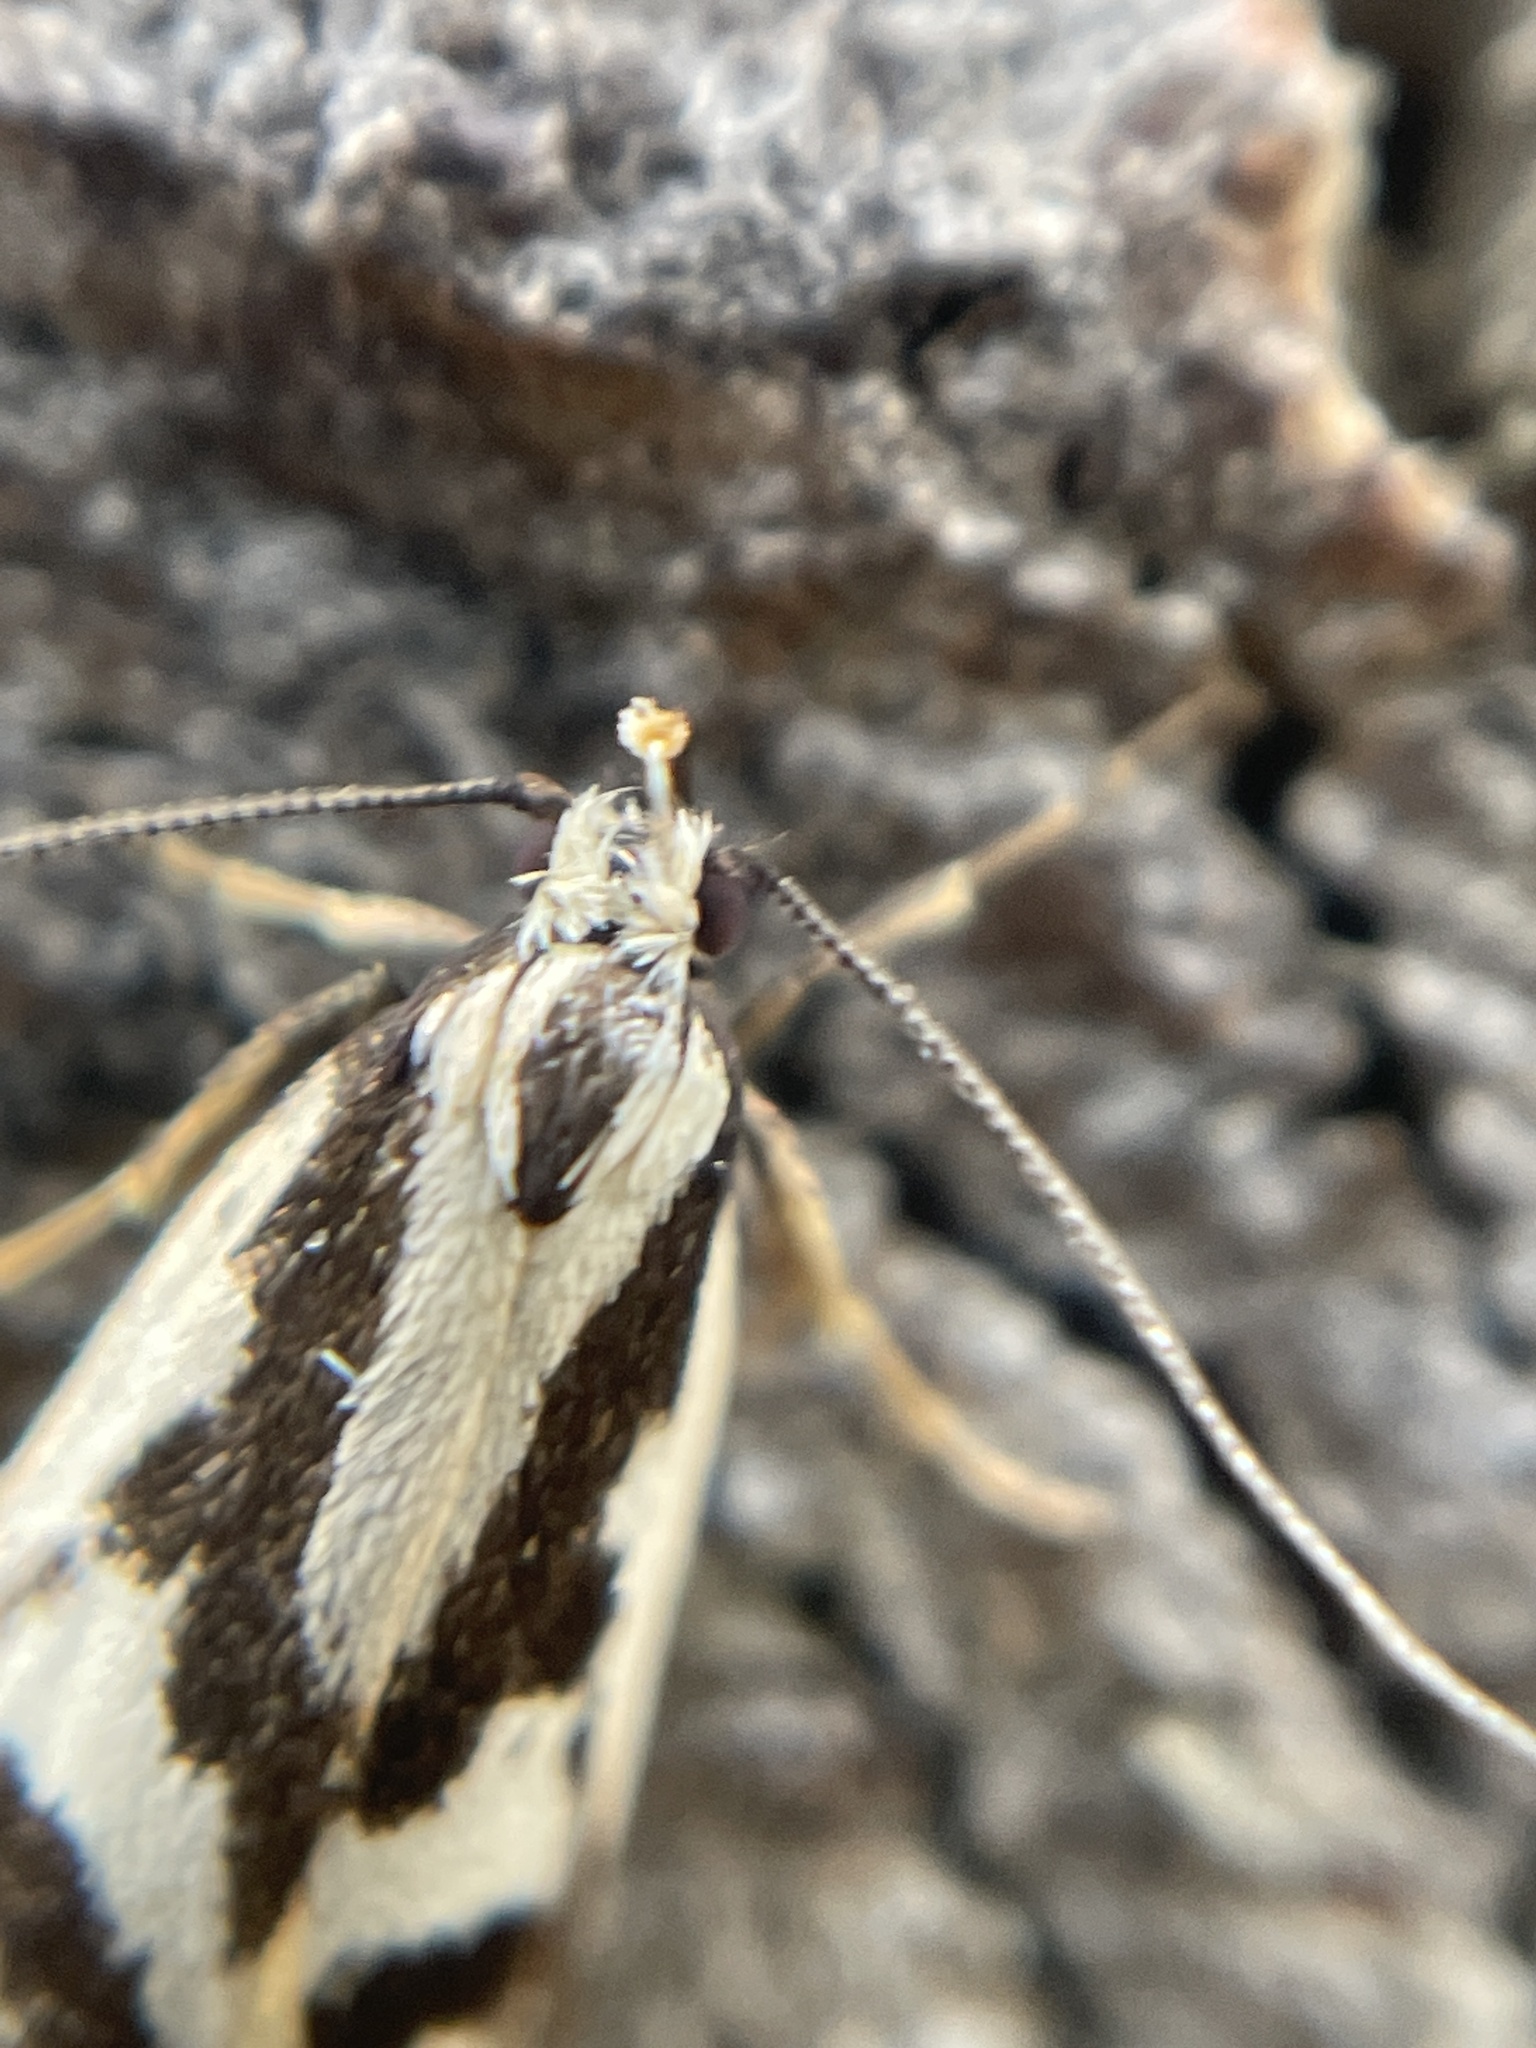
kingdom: Animalia
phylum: Arthropoda
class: Insecta
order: Lepidoptera
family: Oecophoridae
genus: Epithymema
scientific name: Epithymema incomposita
